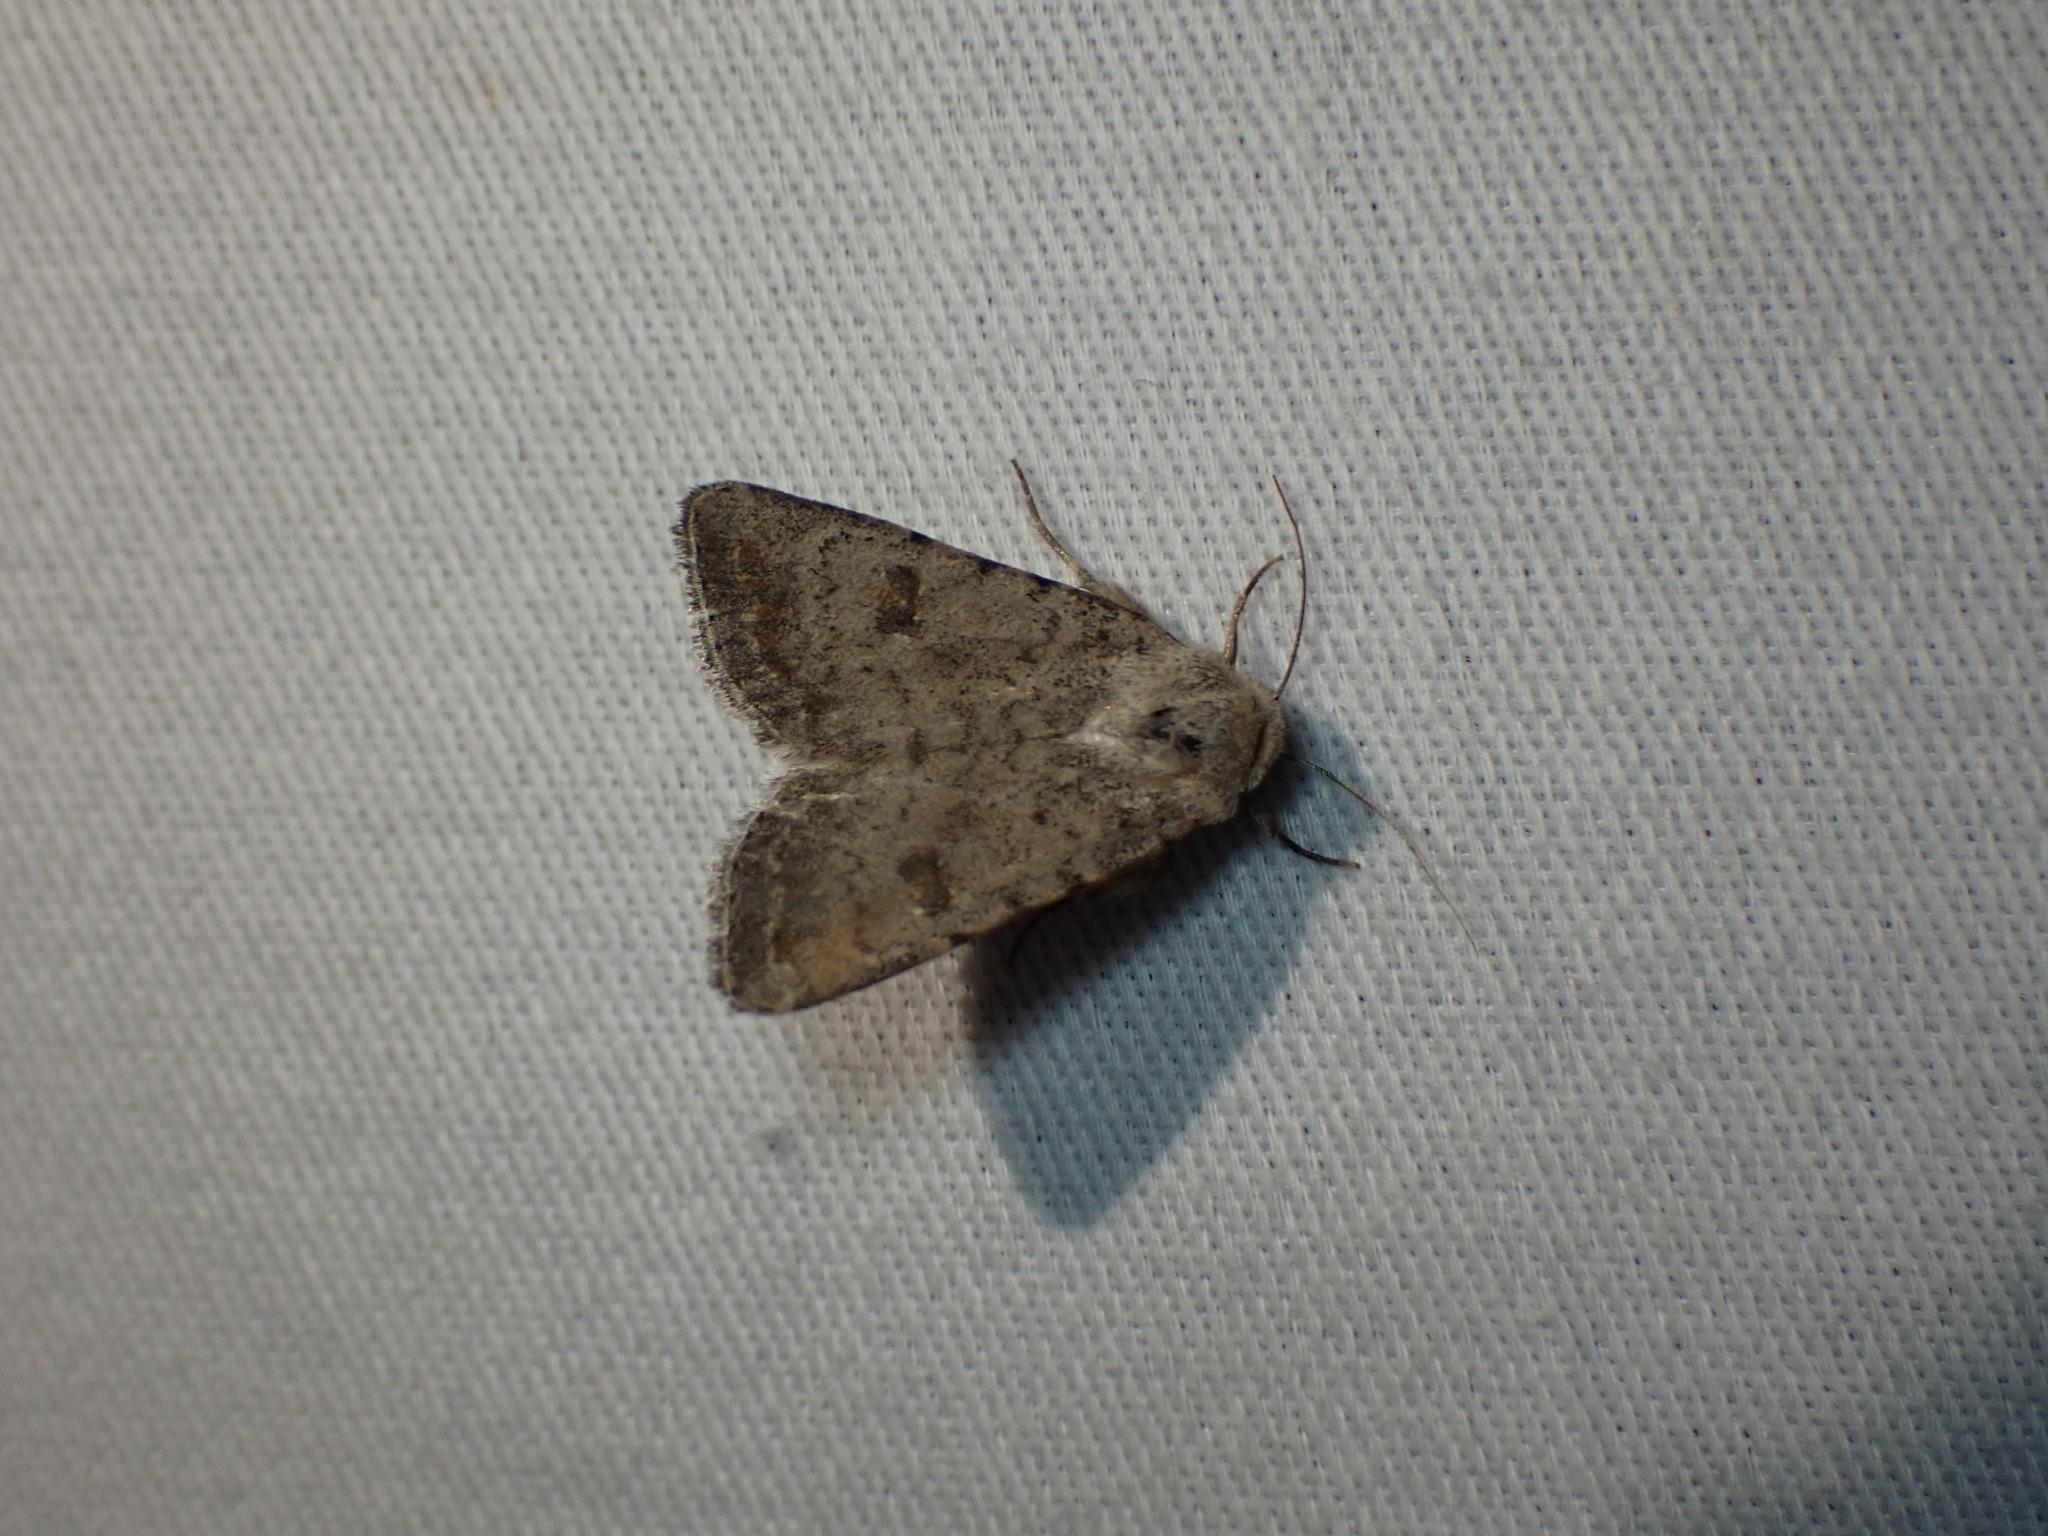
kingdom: Animalia
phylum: Arthropoda
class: Insecta
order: Lepidoptera
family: Noctuidae
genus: Caradrina
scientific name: Caradrina montana
